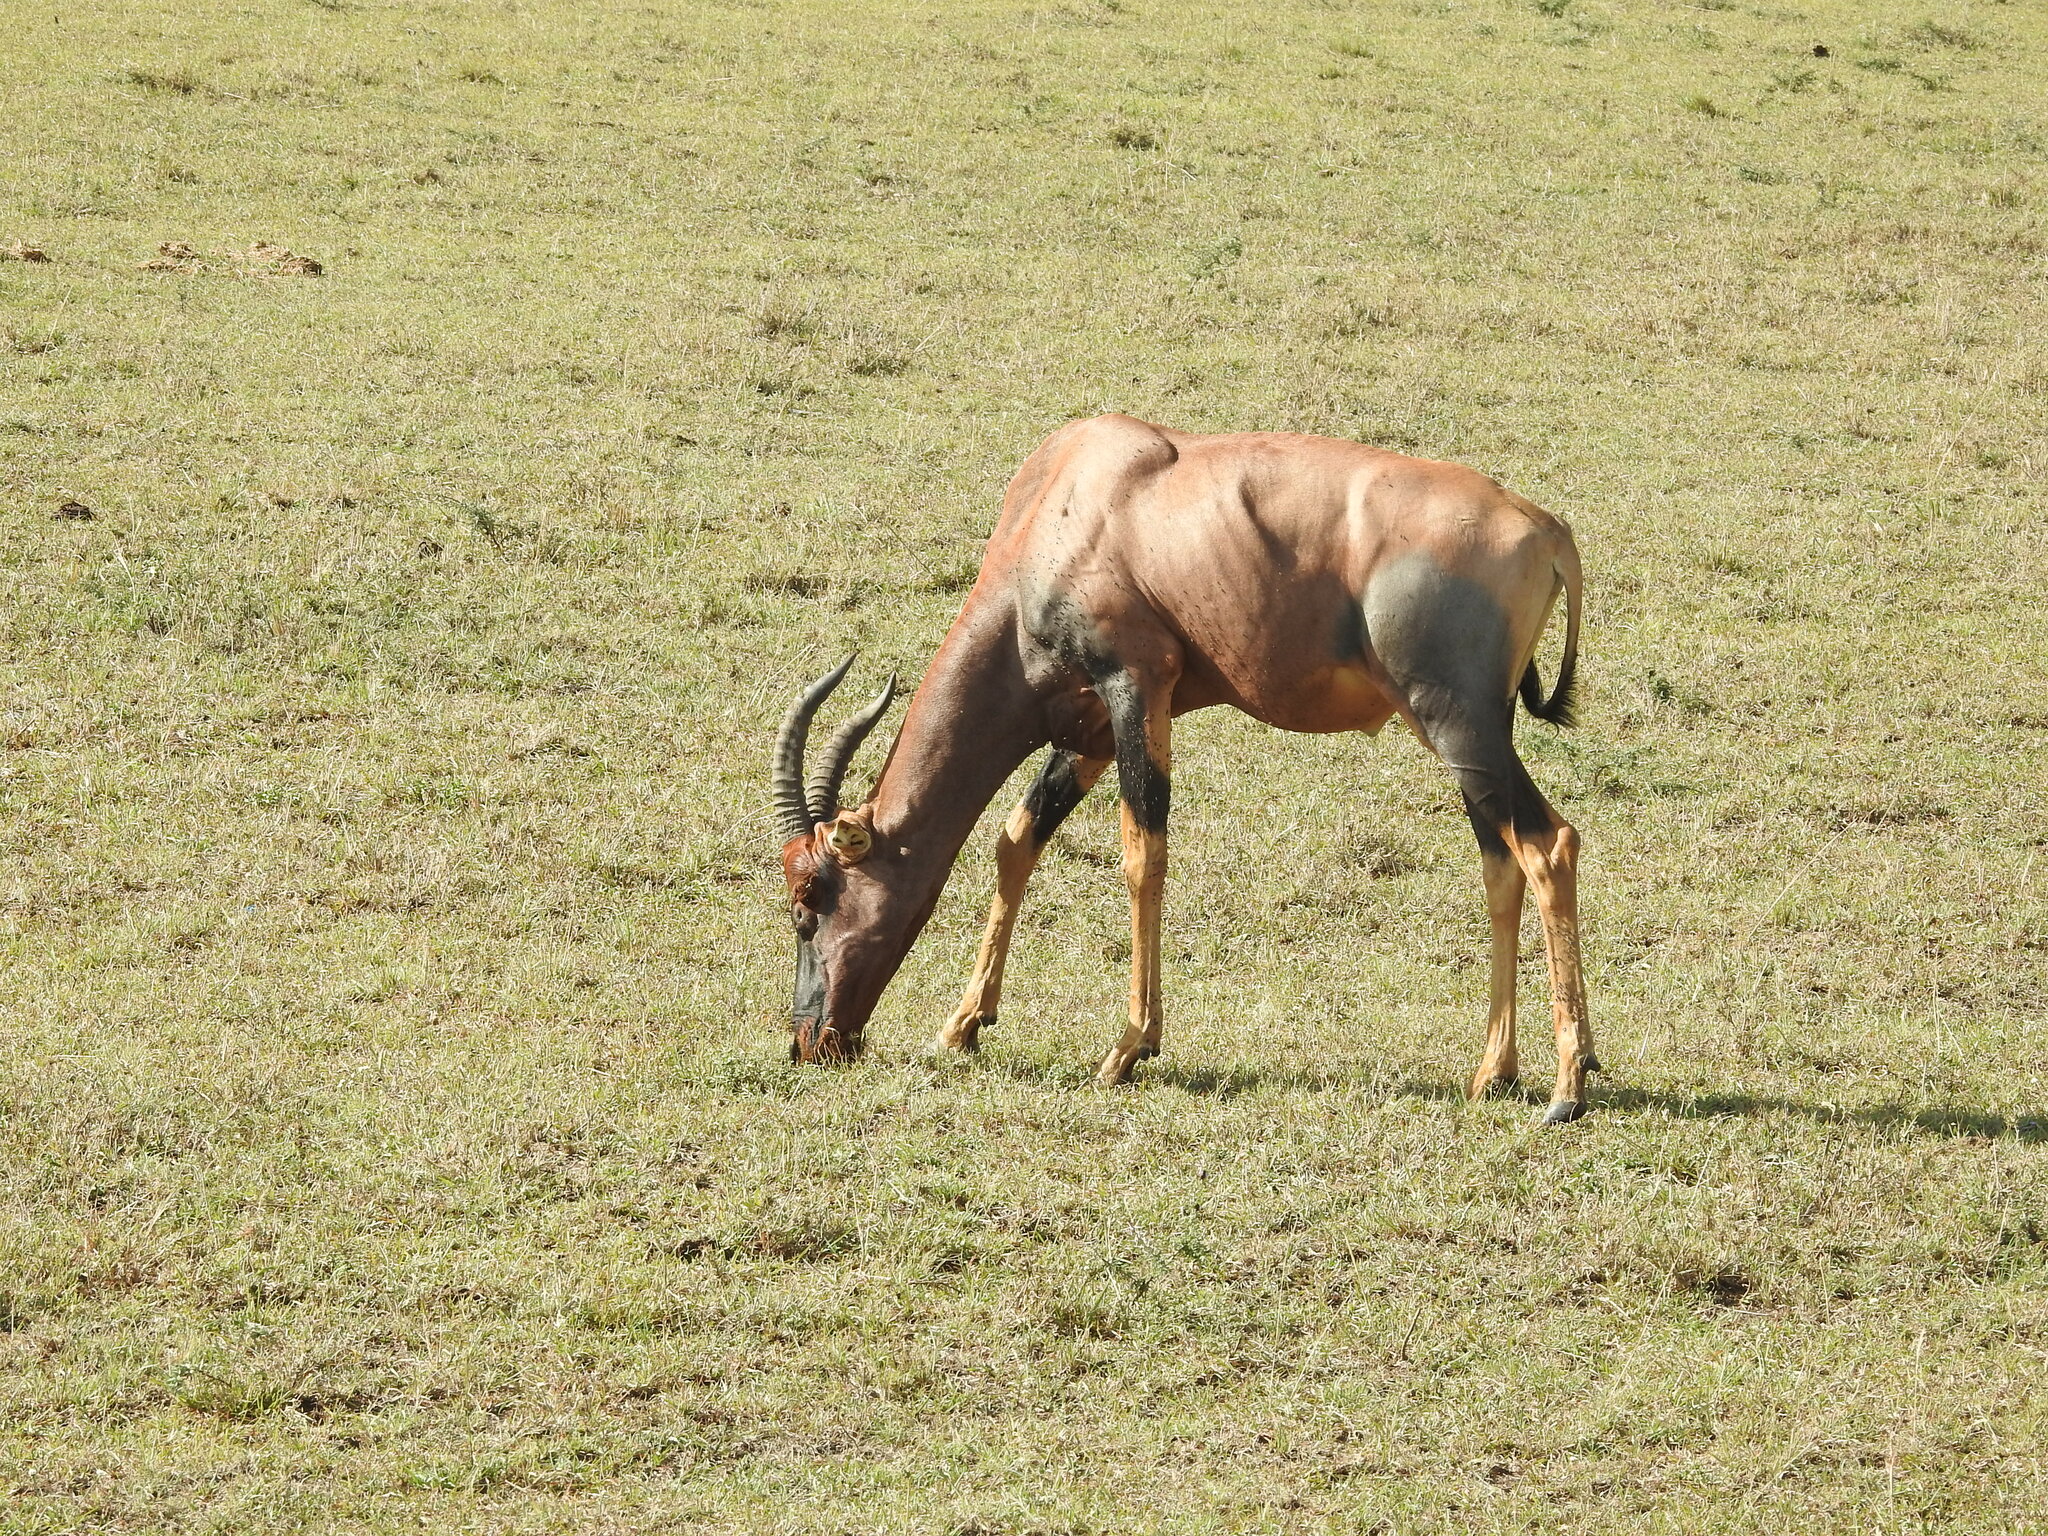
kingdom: Animalia
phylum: Chordata
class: Mammalia
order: Artiodactyla
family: Bovidae
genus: Damaliscus
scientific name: Damaliscus korrigum
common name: Topi
